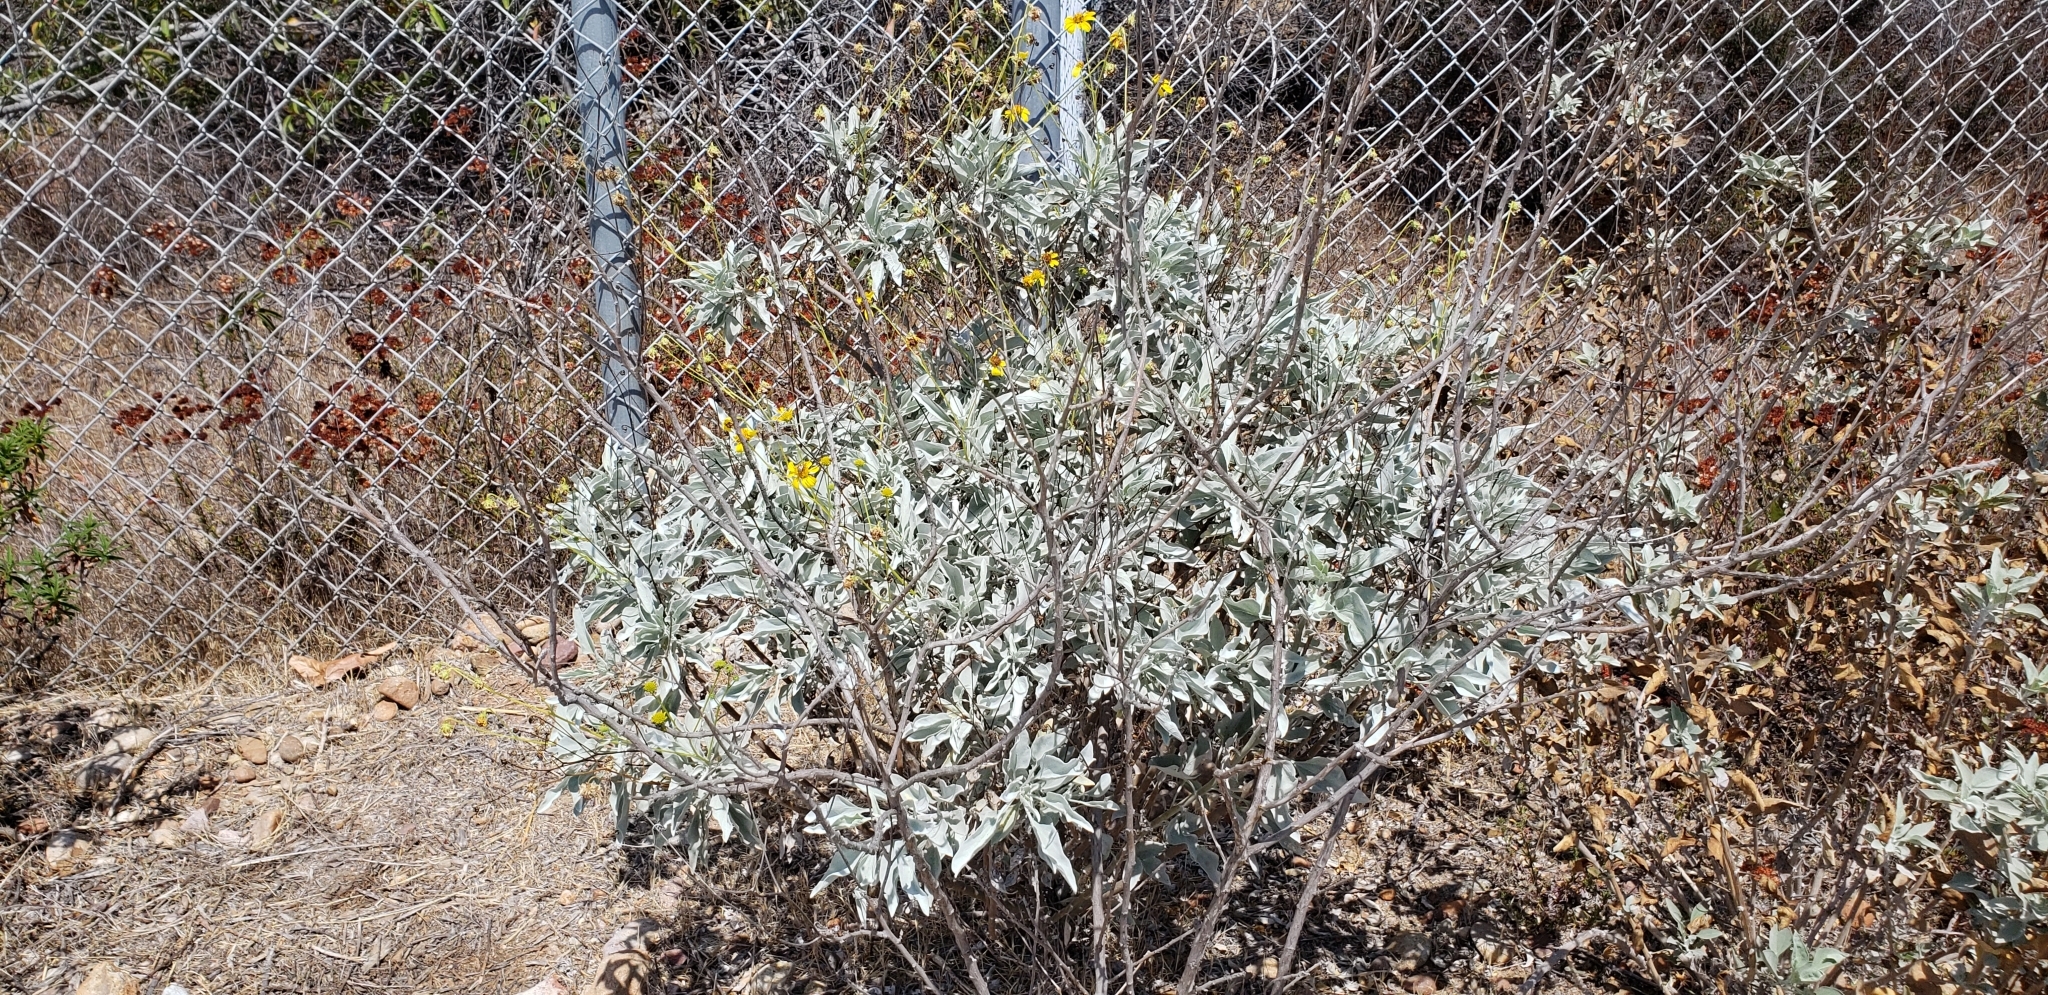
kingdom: Plantae
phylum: Tracheophyta
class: Magnoliopsida
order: Asterales
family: Asteraceae
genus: Encelia
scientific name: Encelia farinosa
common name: Brittlebush
